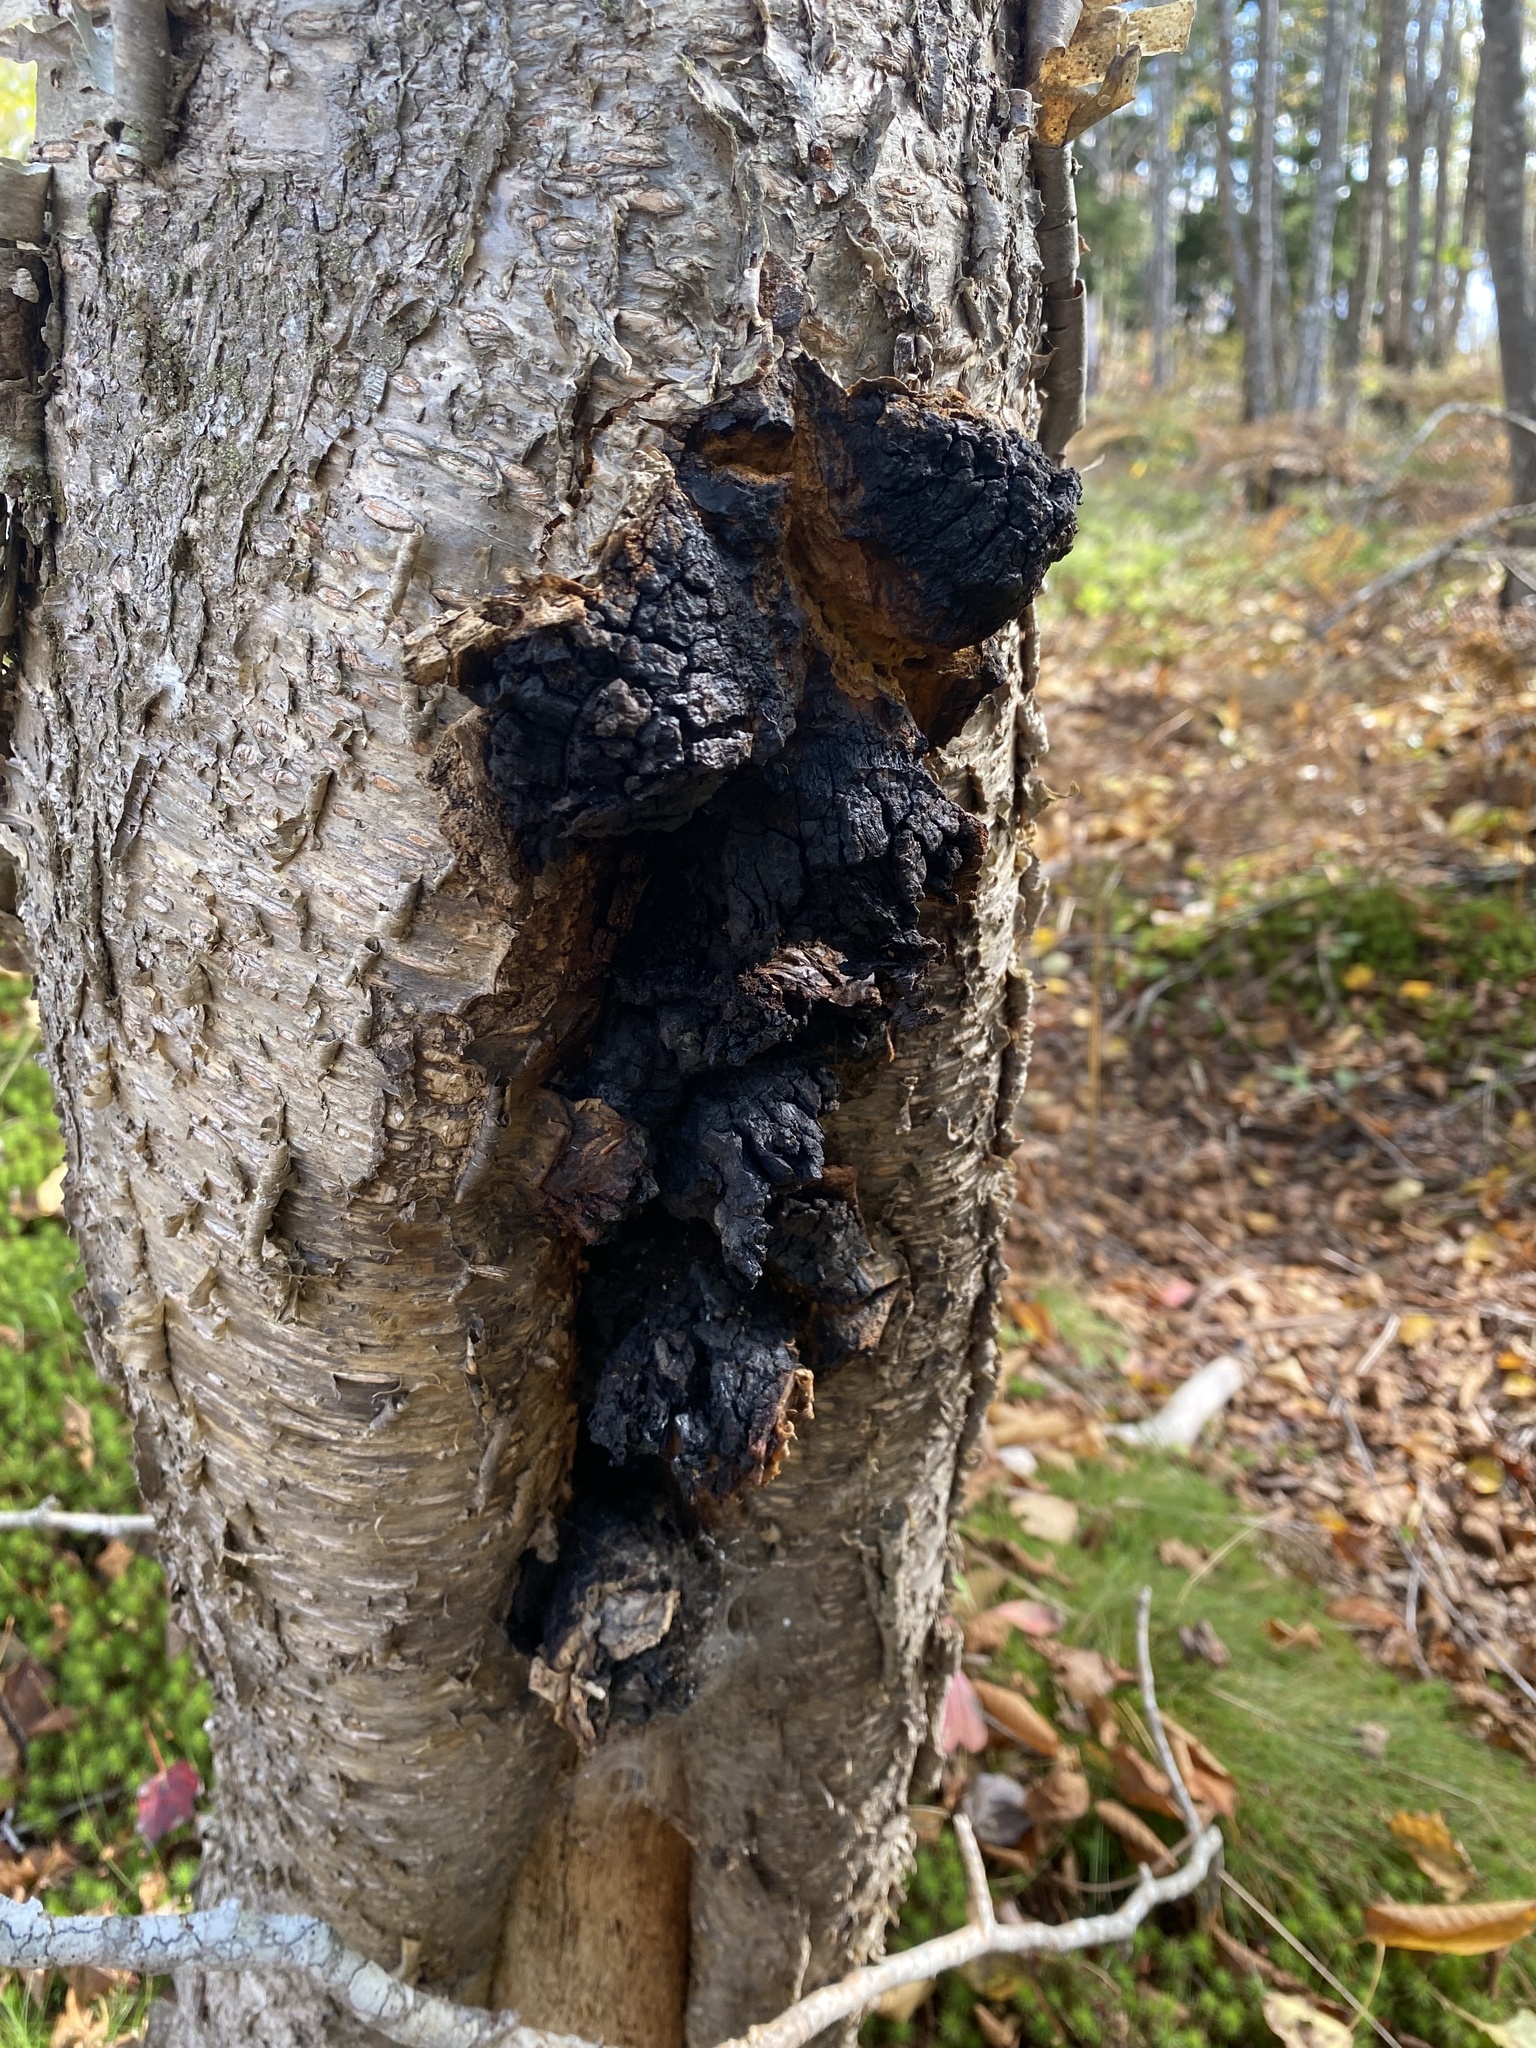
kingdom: Fungi
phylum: Basidiomycota
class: Agaricomycetes
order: Hymenochaetales
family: Hymenochaetaceae
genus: Inonotus
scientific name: Inonotus obliquus
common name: Chaga
